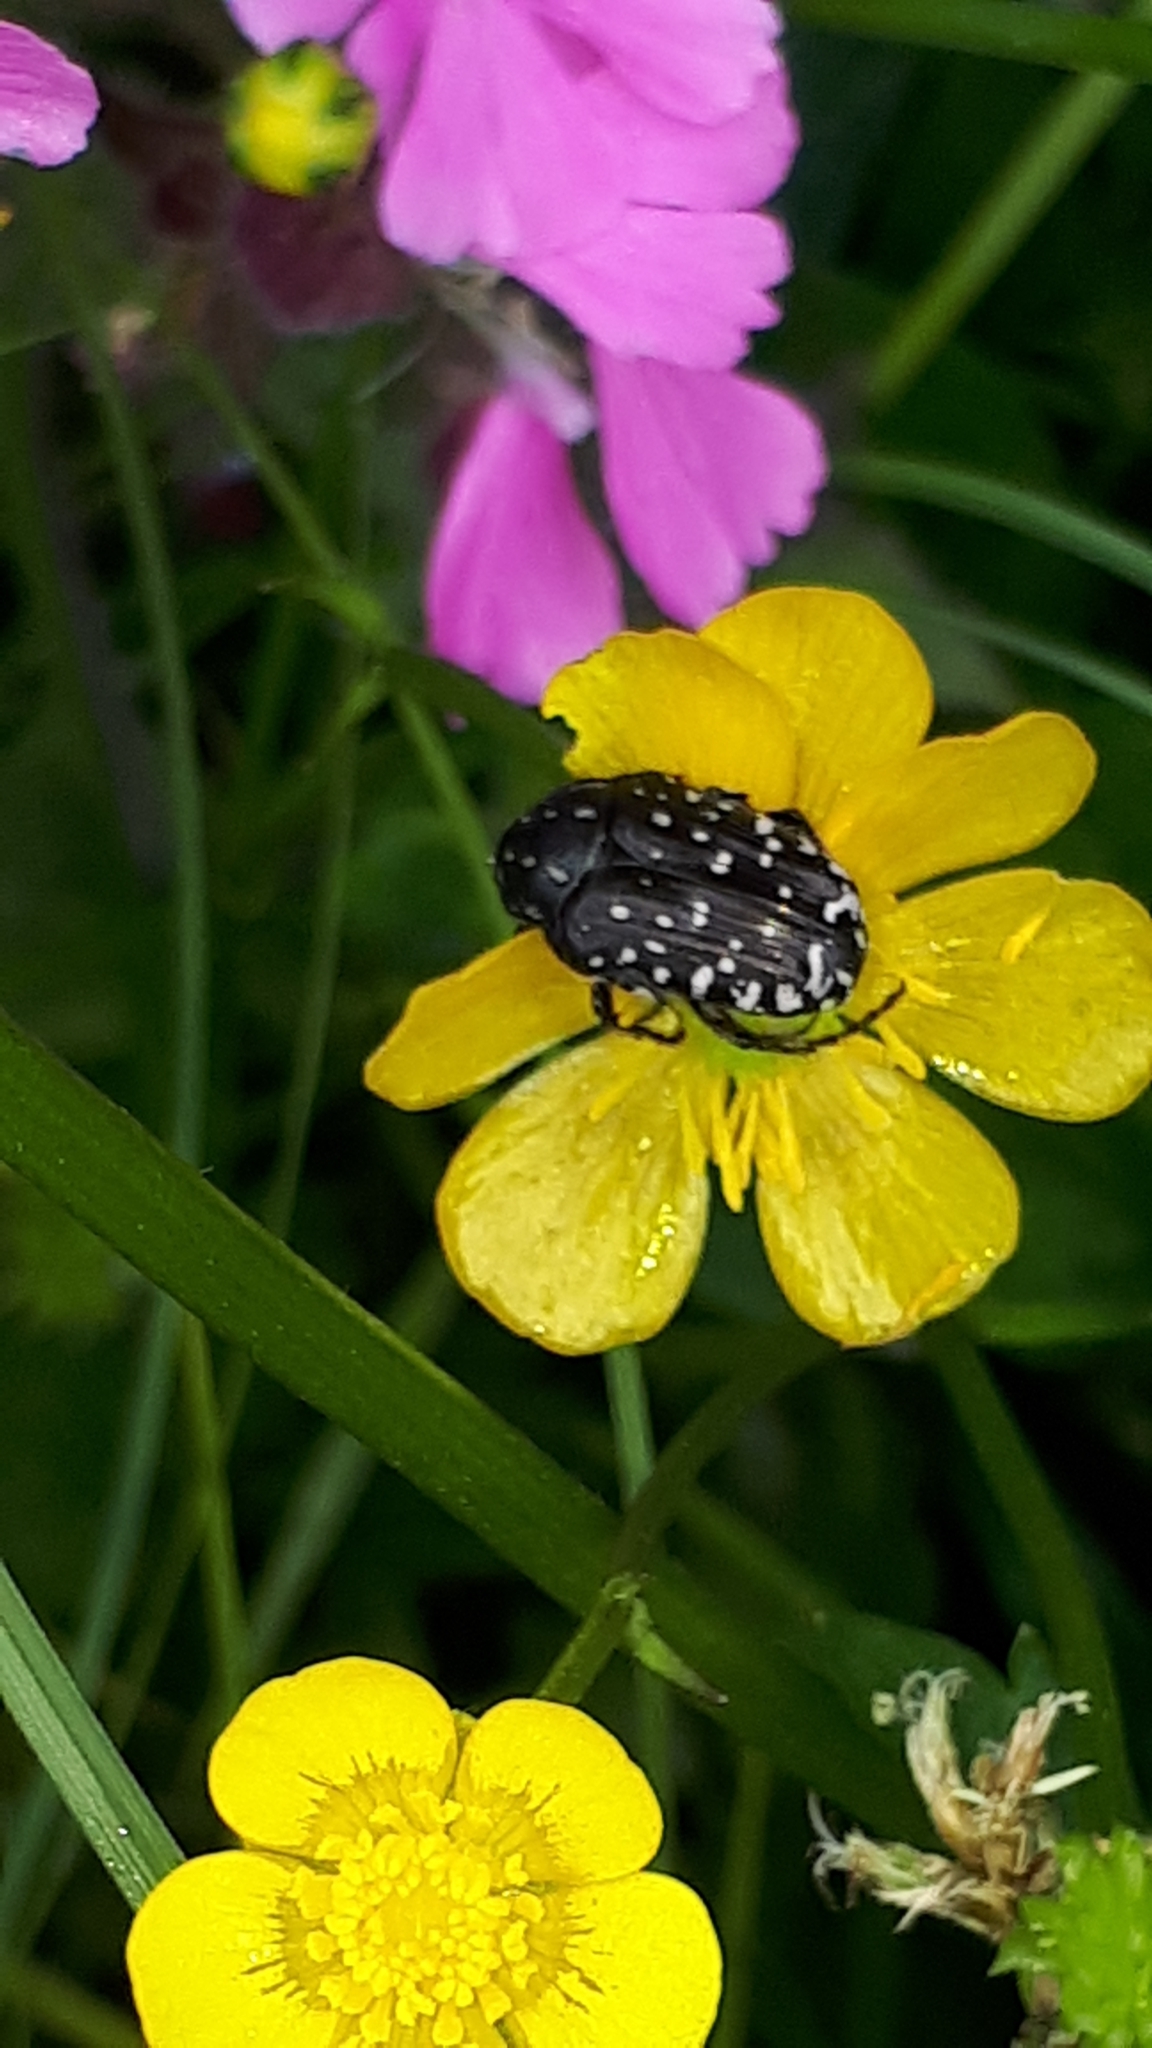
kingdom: Animalia
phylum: Arthropoda
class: Insecta
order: Coleoptera
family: Scarabaeidae
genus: Oxythyrea
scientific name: Oxythyrea funesta
